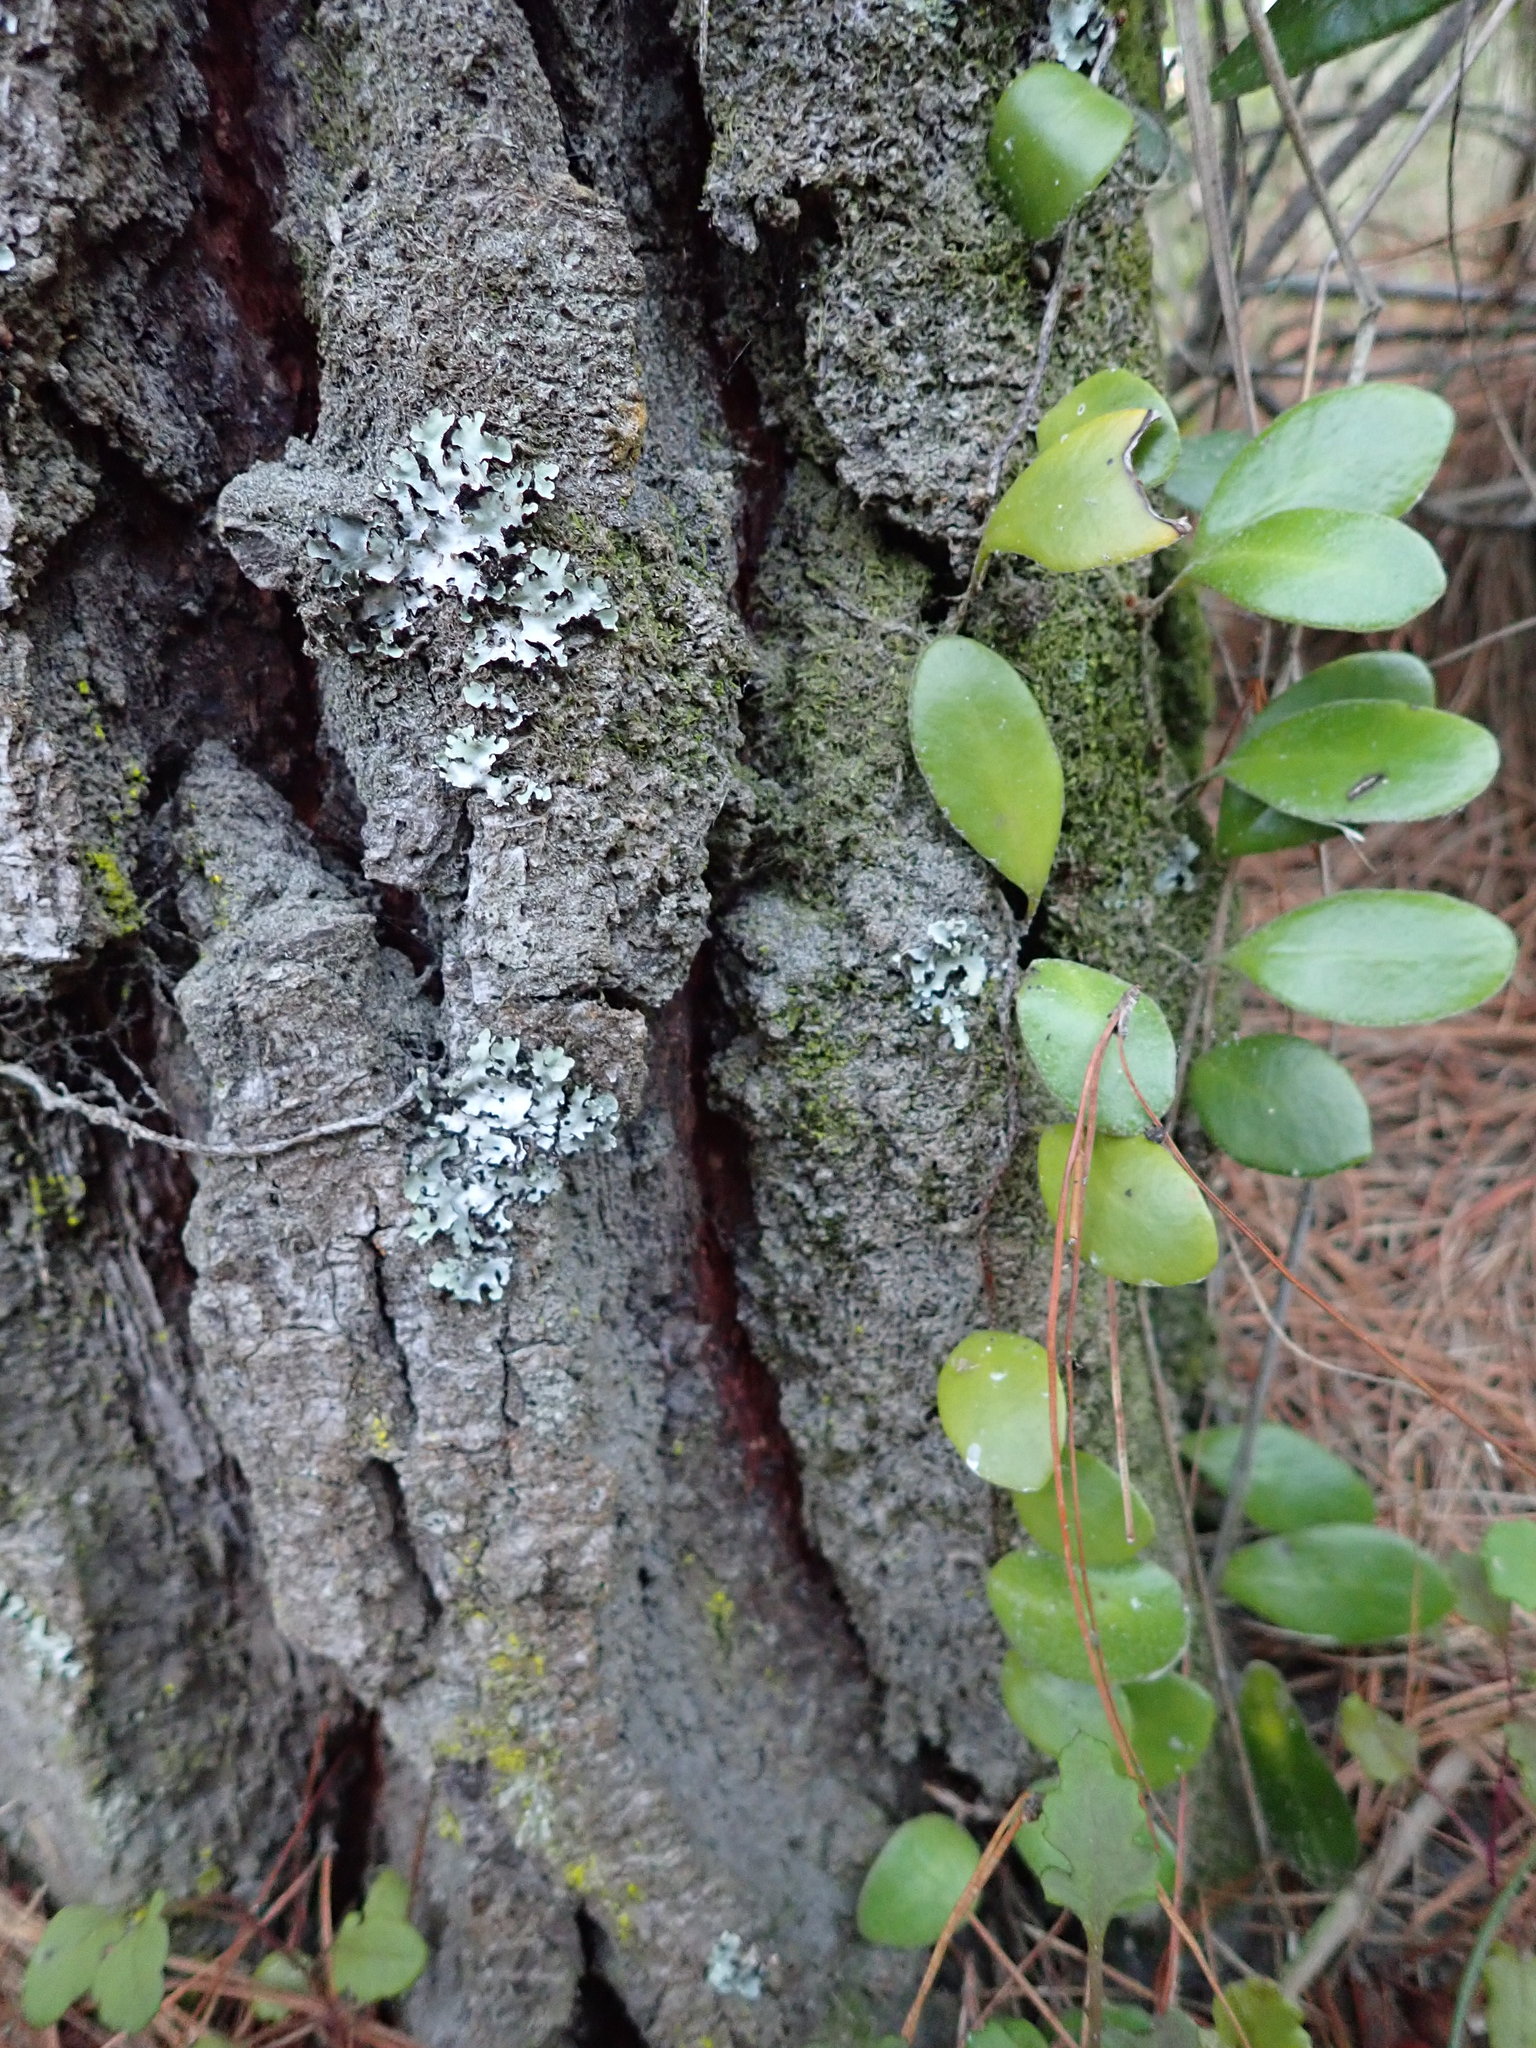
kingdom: Plantae
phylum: Tracheophyta
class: Polypodiopsida
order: Polypodiales
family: Polypodiaceae
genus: Pyrrosia
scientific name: Pyrrosia eleagnifolia
